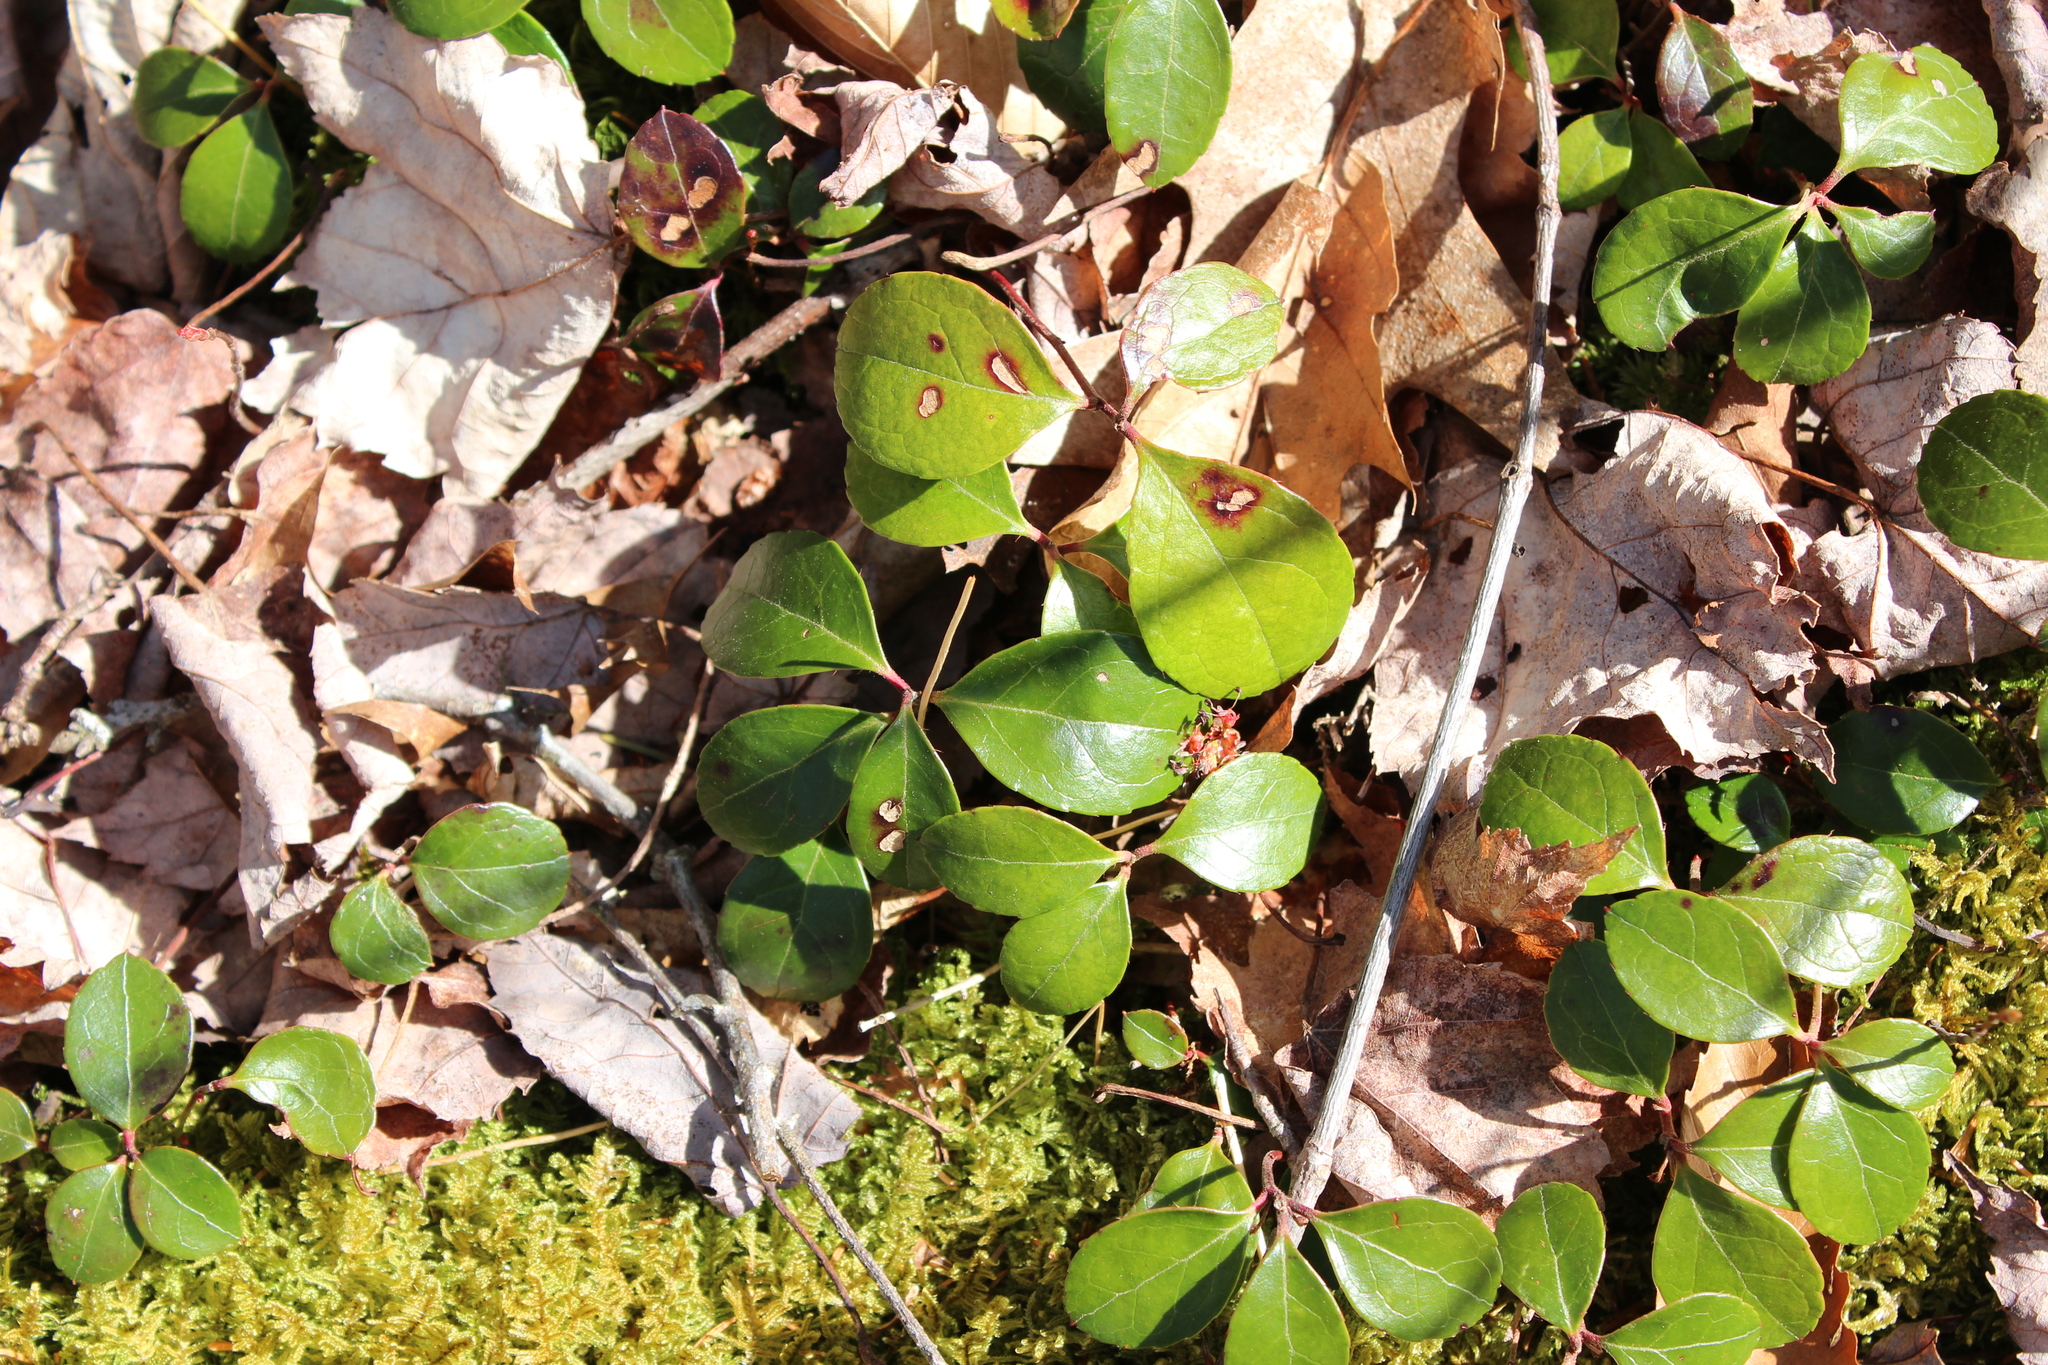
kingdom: Plantae
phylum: Tracheophyta
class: Magnoliopsida
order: Ericales
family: Ericaceae
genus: Gaultheria
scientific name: Gaultheria procumbens
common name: Checkerberry
